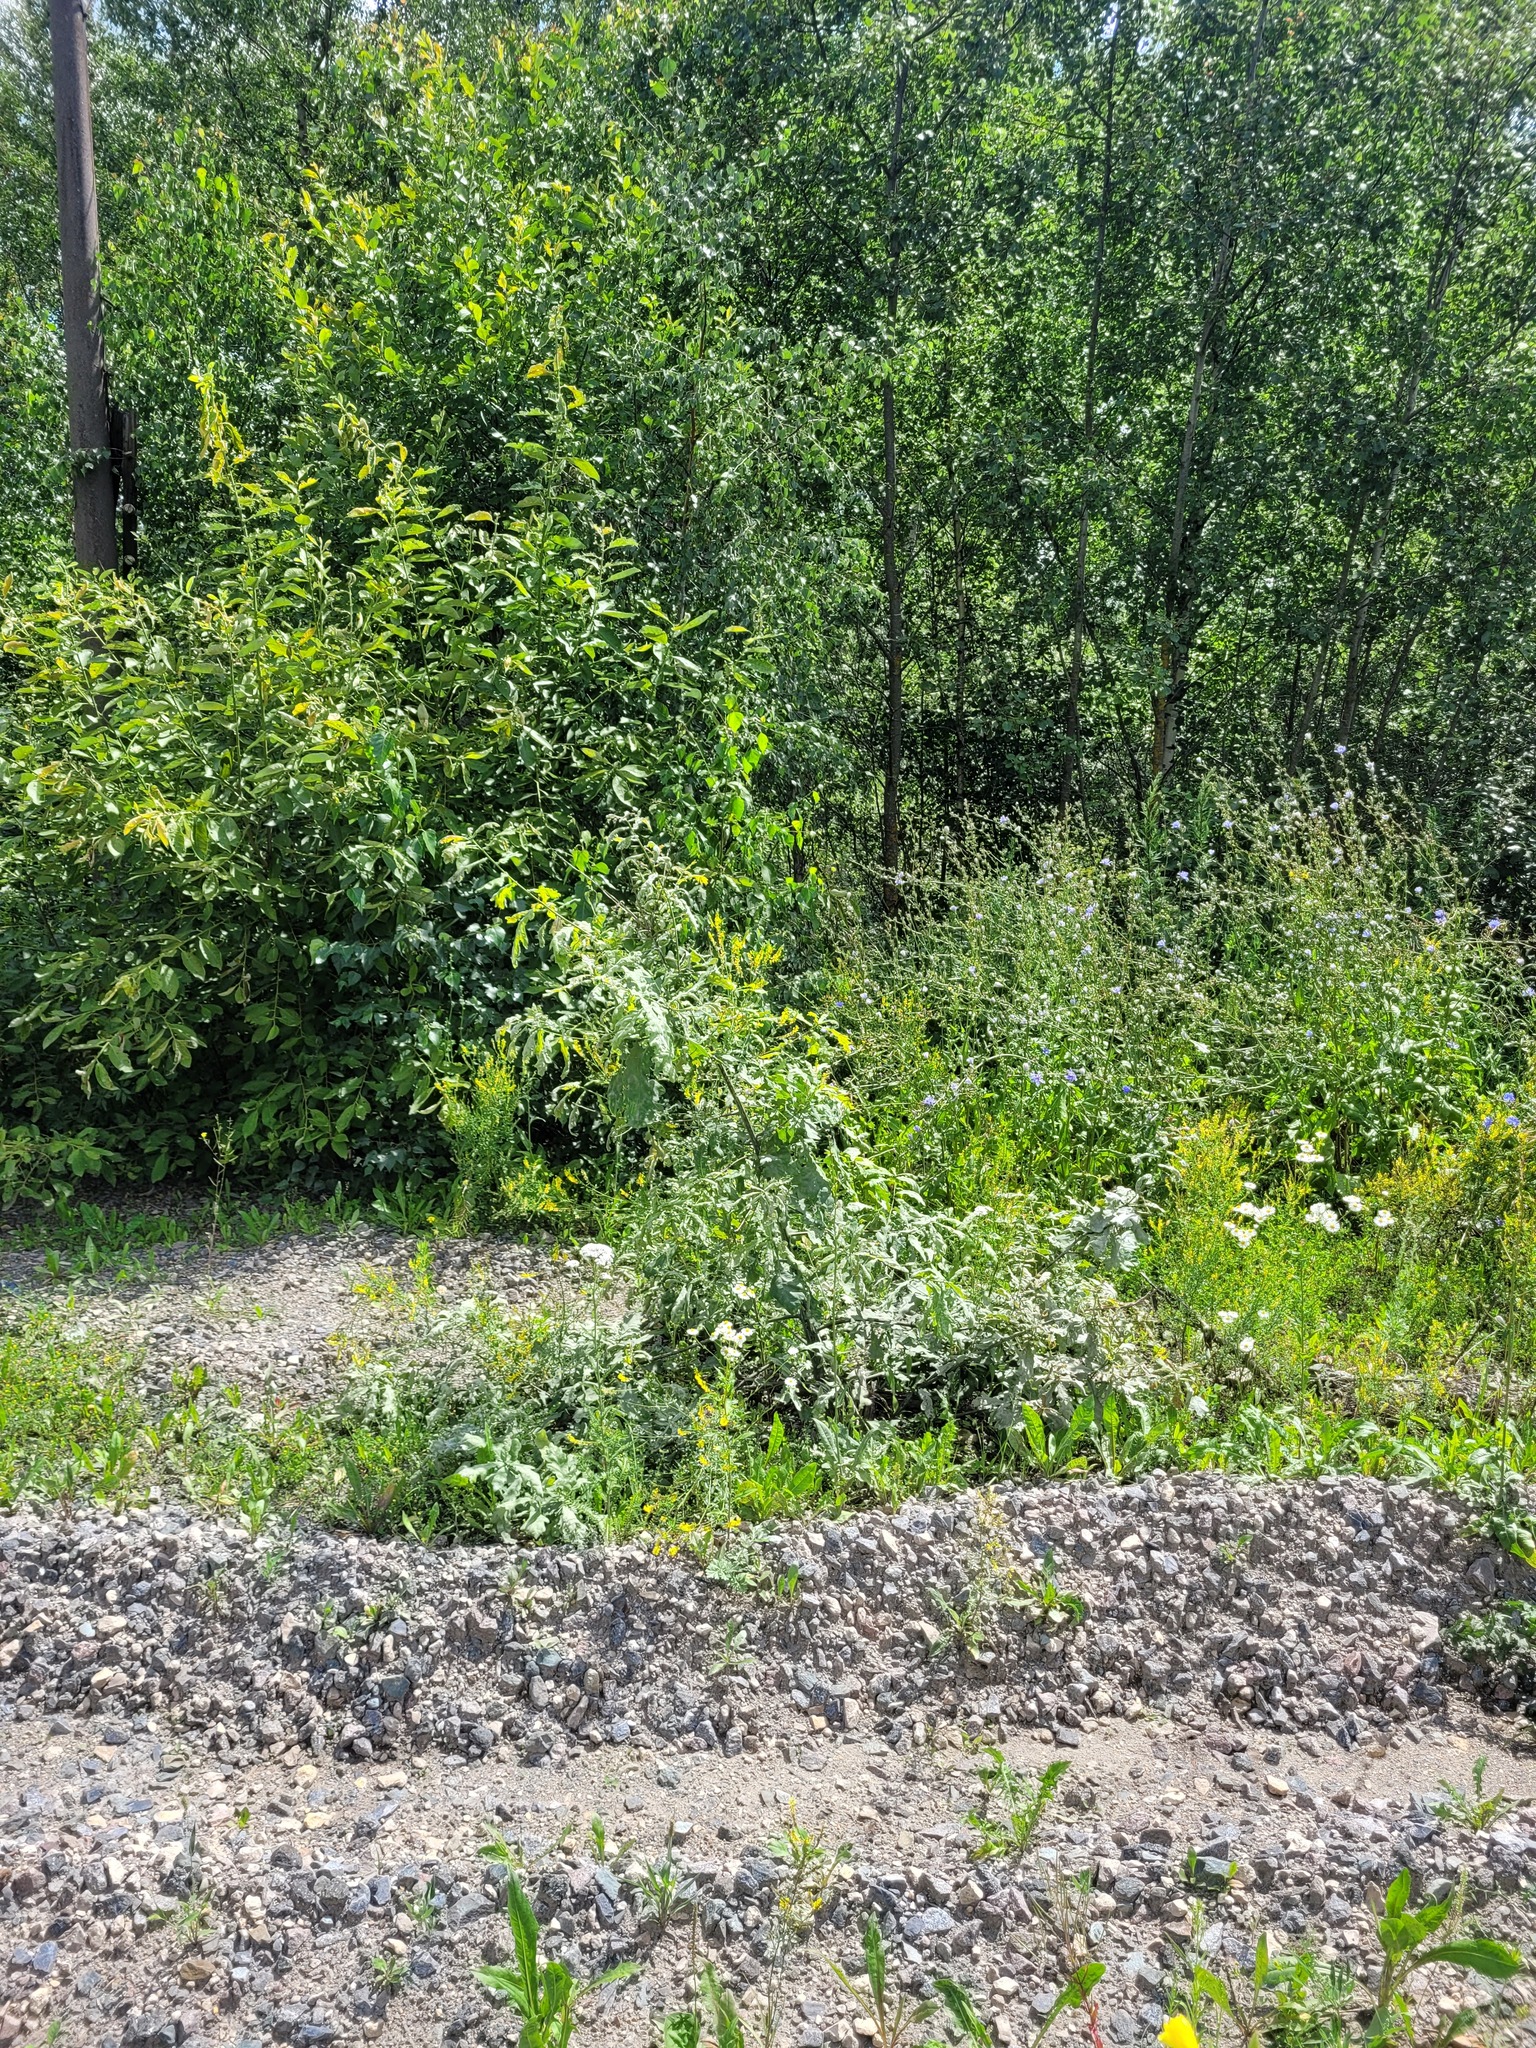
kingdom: Plantae
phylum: Tracheophyta
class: Magnoliopsida
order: Fagales
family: Fagaceae
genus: Quercus
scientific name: Quercus robur
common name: Pedunculate oak
